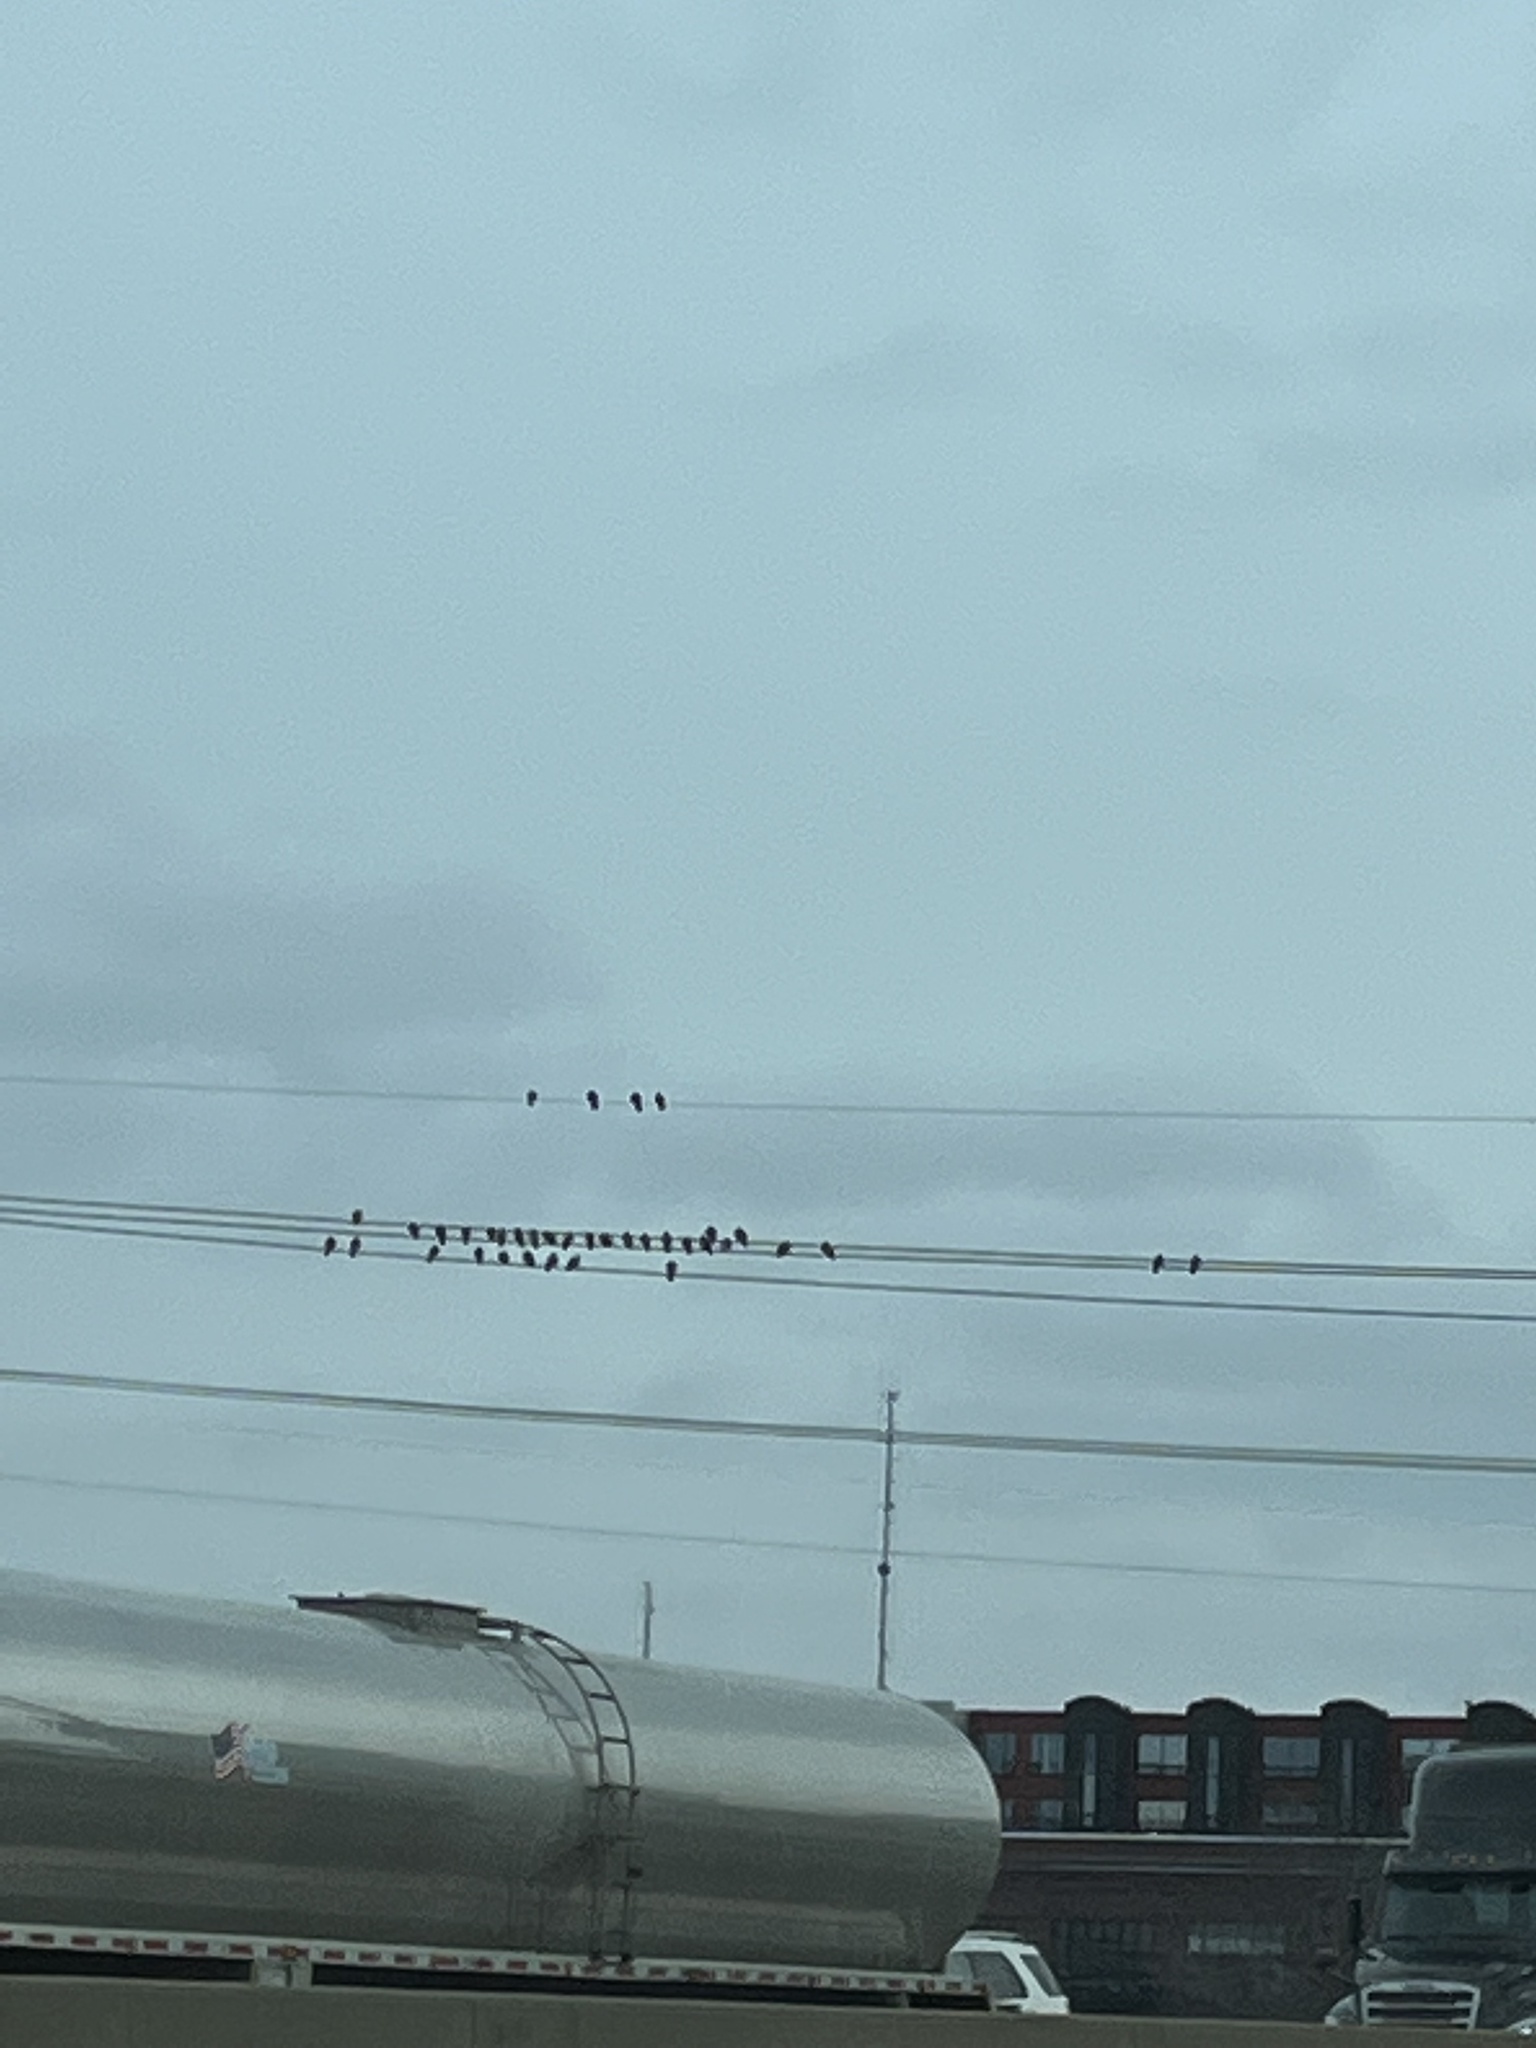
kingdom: Animalia
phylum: Chordata
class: Aves
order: Columbiformes
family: Columbidae
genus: Columba
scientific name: Columba livia
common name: Rock pigeon
